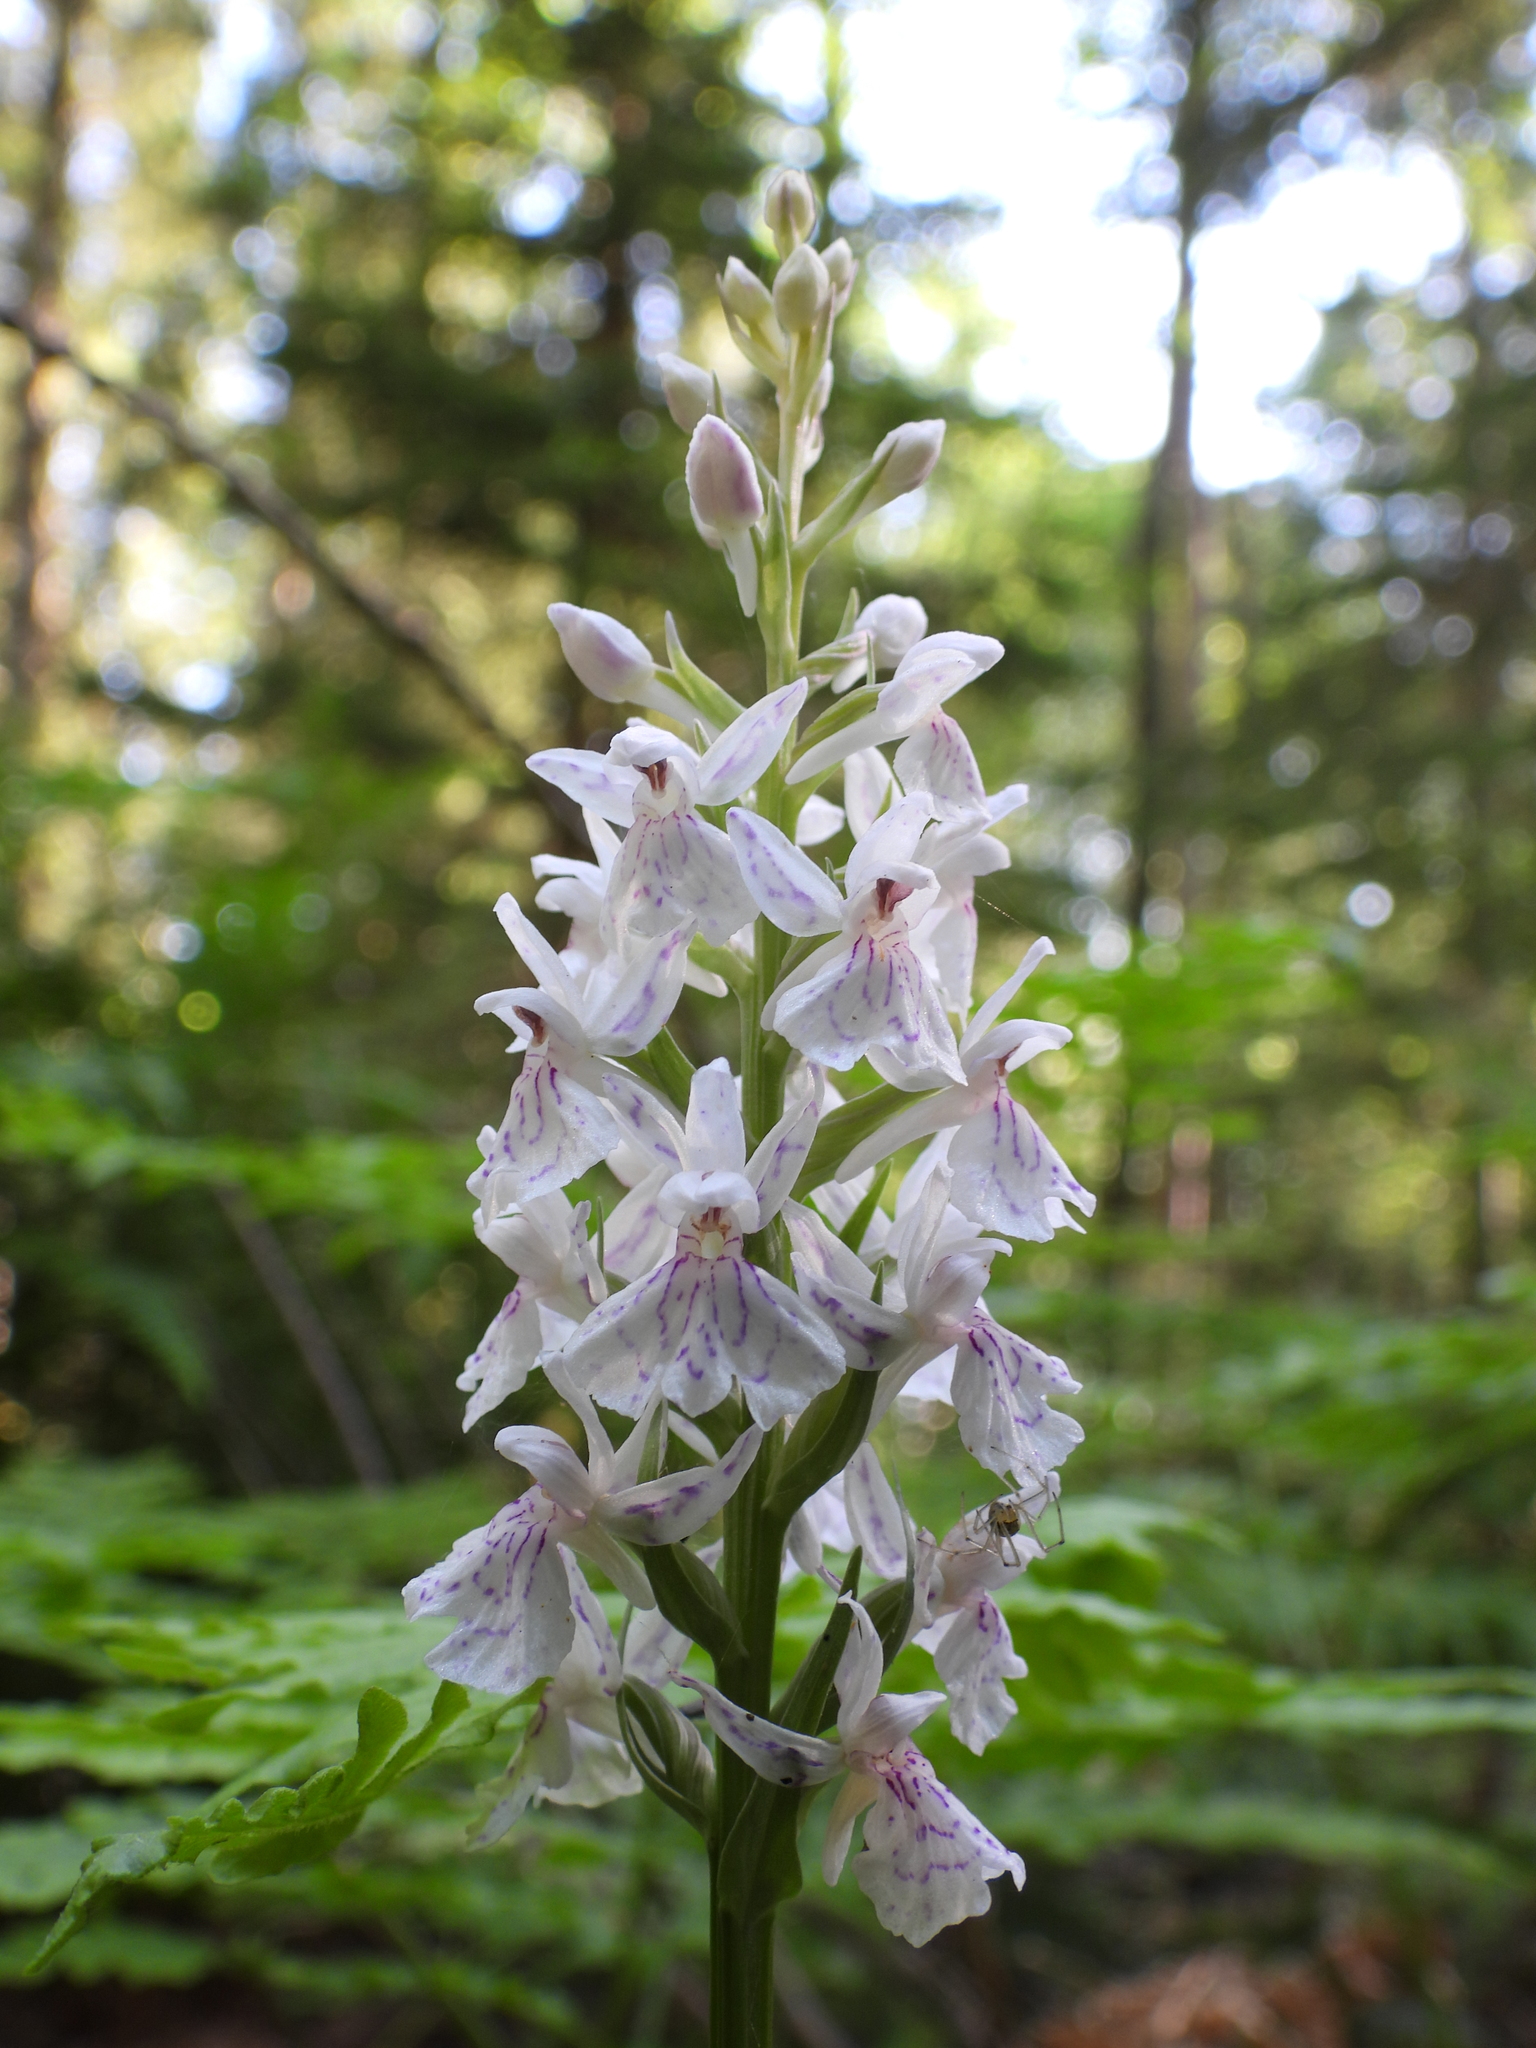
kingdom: Plantae
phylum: Tracheophyta
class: Liliopsida
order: Asparagales
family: Orchidaceae
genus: Dactylorhiza
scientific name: Dactylorhiza maculata
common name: Heath spotted-orchid
